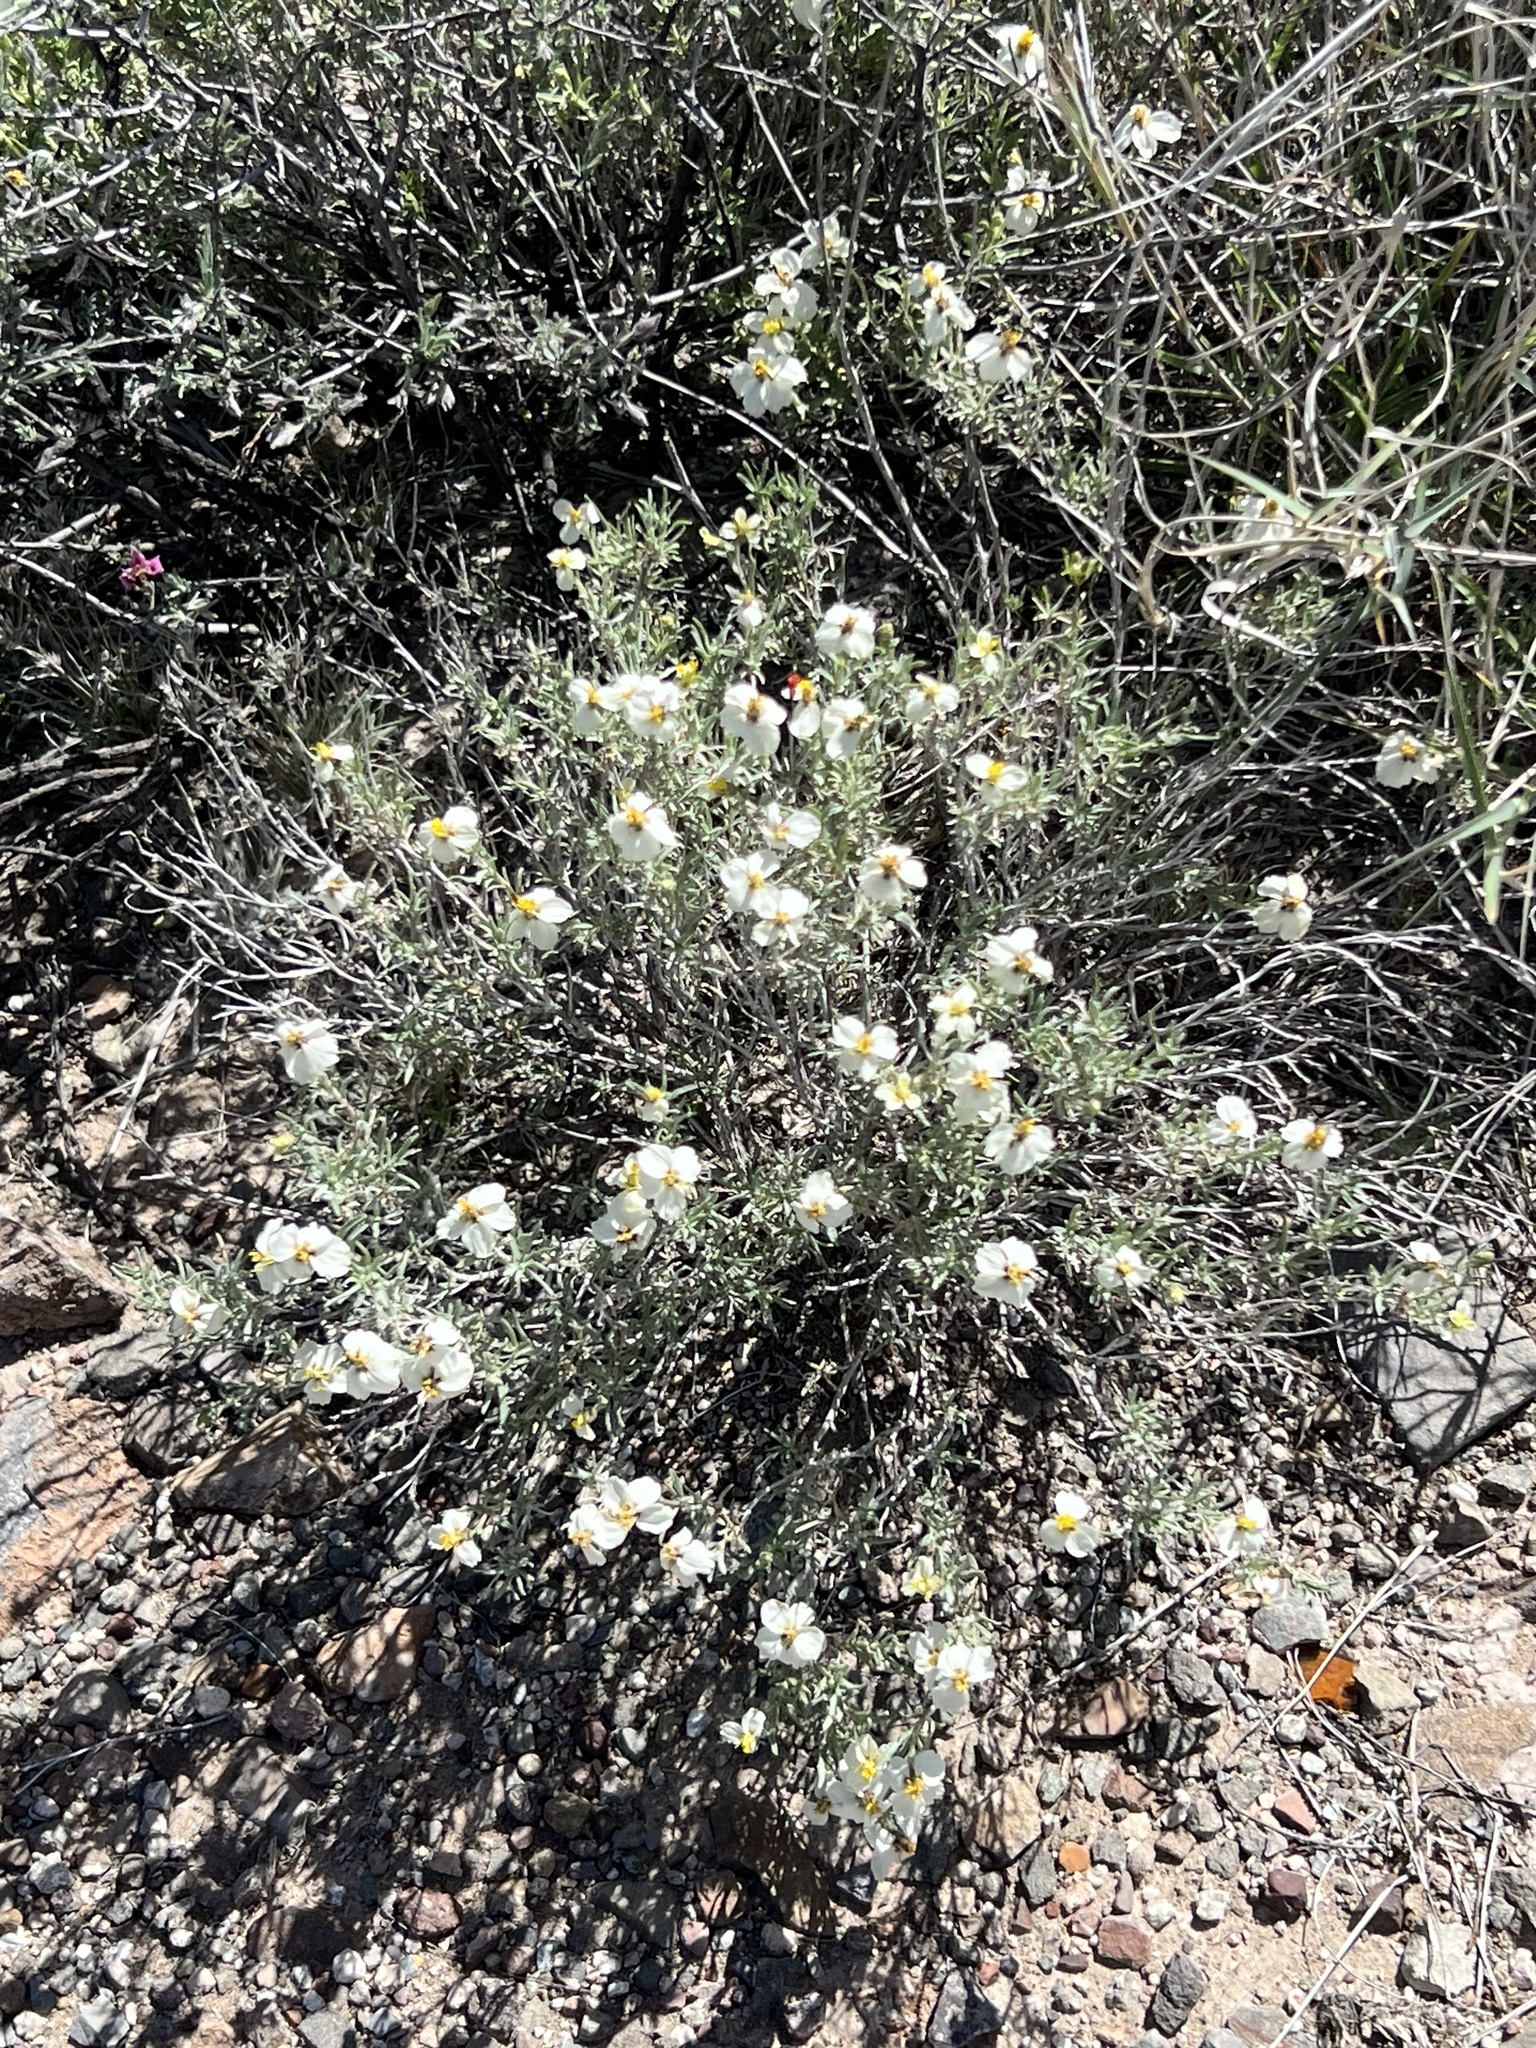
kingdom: Plantae
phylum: Tracheophyta
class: Magnoliopsida
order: Asterales
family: Asteraceae
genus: Zinnia
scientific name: Zinnia acerosa
